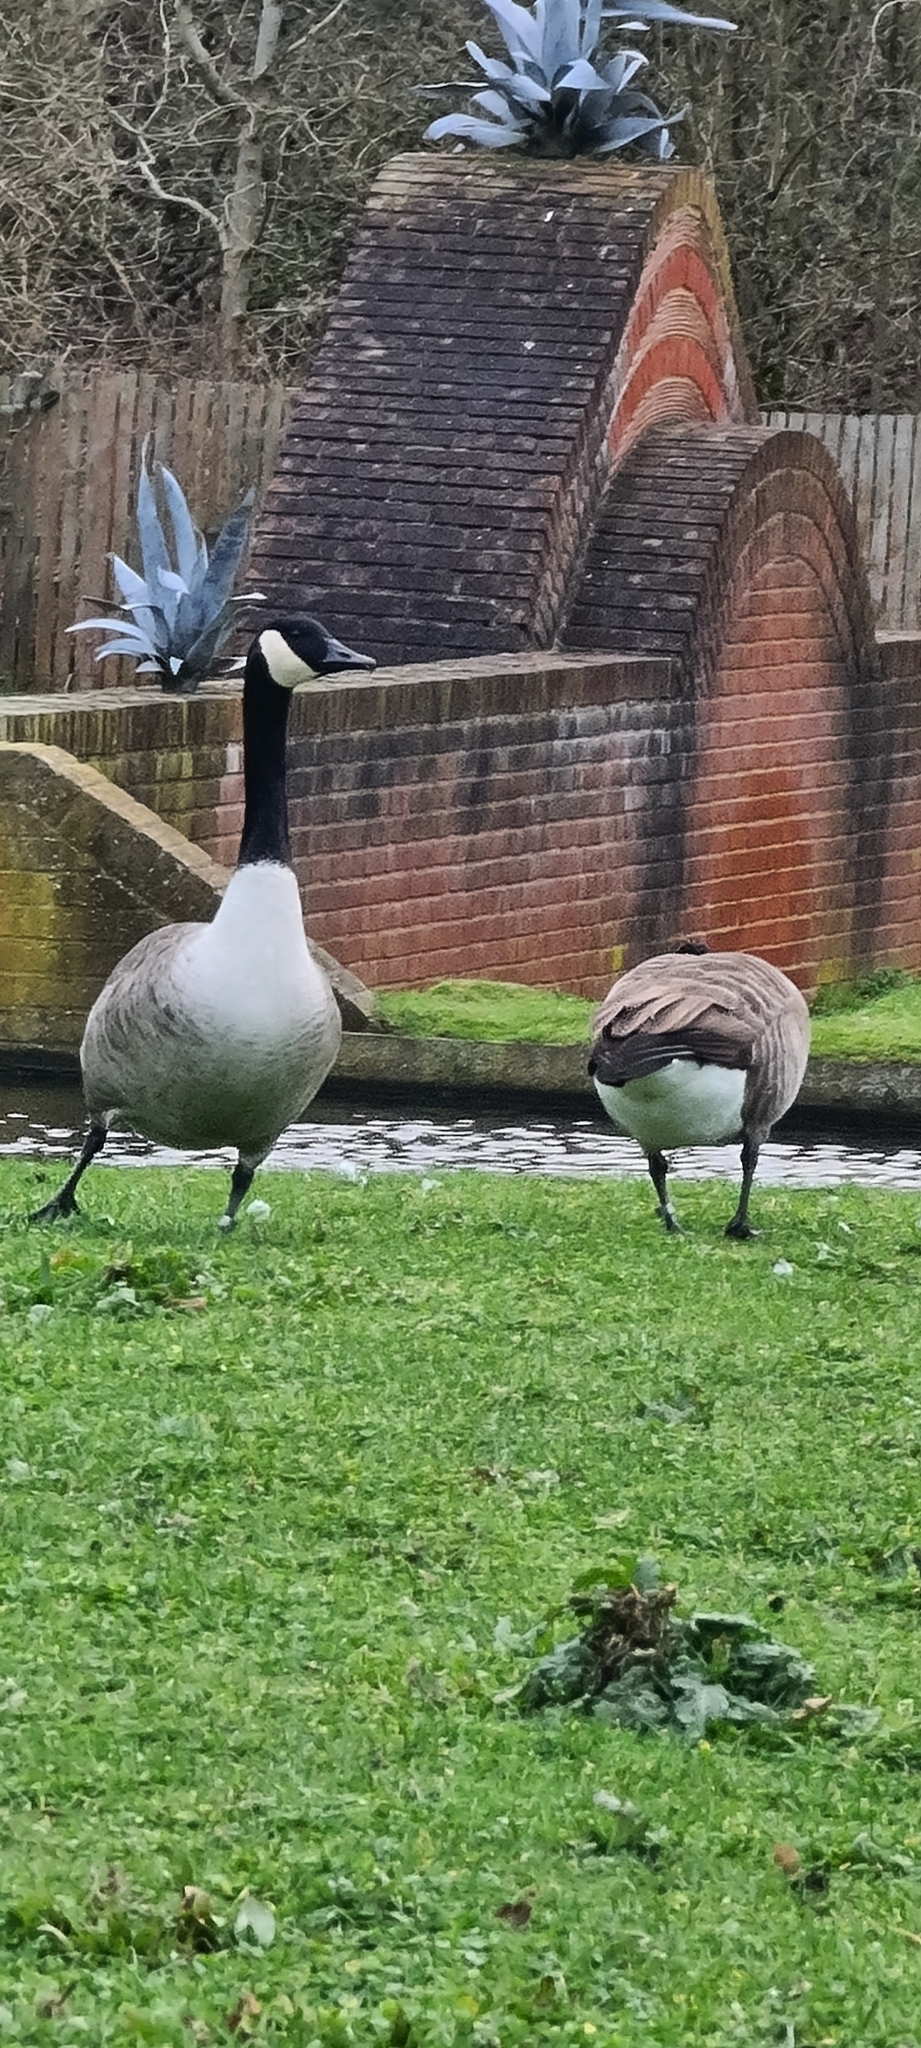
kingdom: Animalia
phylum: Chordata
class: Aves
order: Anseriformes
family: Anatidae
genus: Branta
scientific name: Branta canadensis
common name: Canada goose
